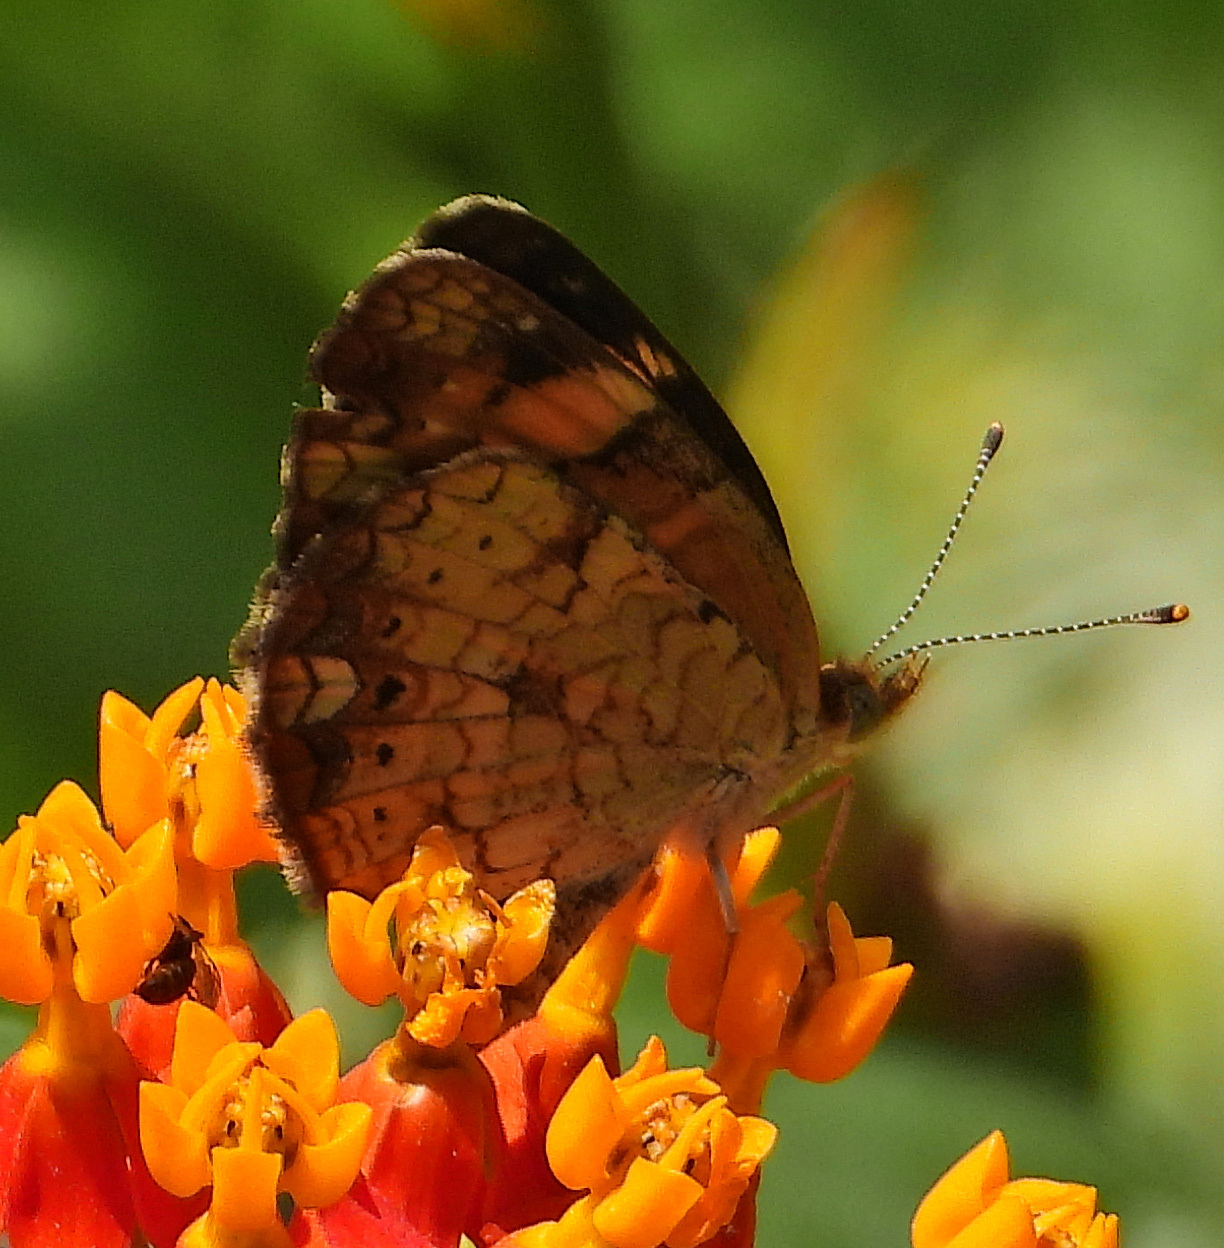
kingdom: Animalia
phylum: Arthropoda
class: Insecta
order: Lepidoptera
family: Nymphalidae
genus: Phyciodes
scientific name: Phyciodes tharos
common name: Pearl crescent
